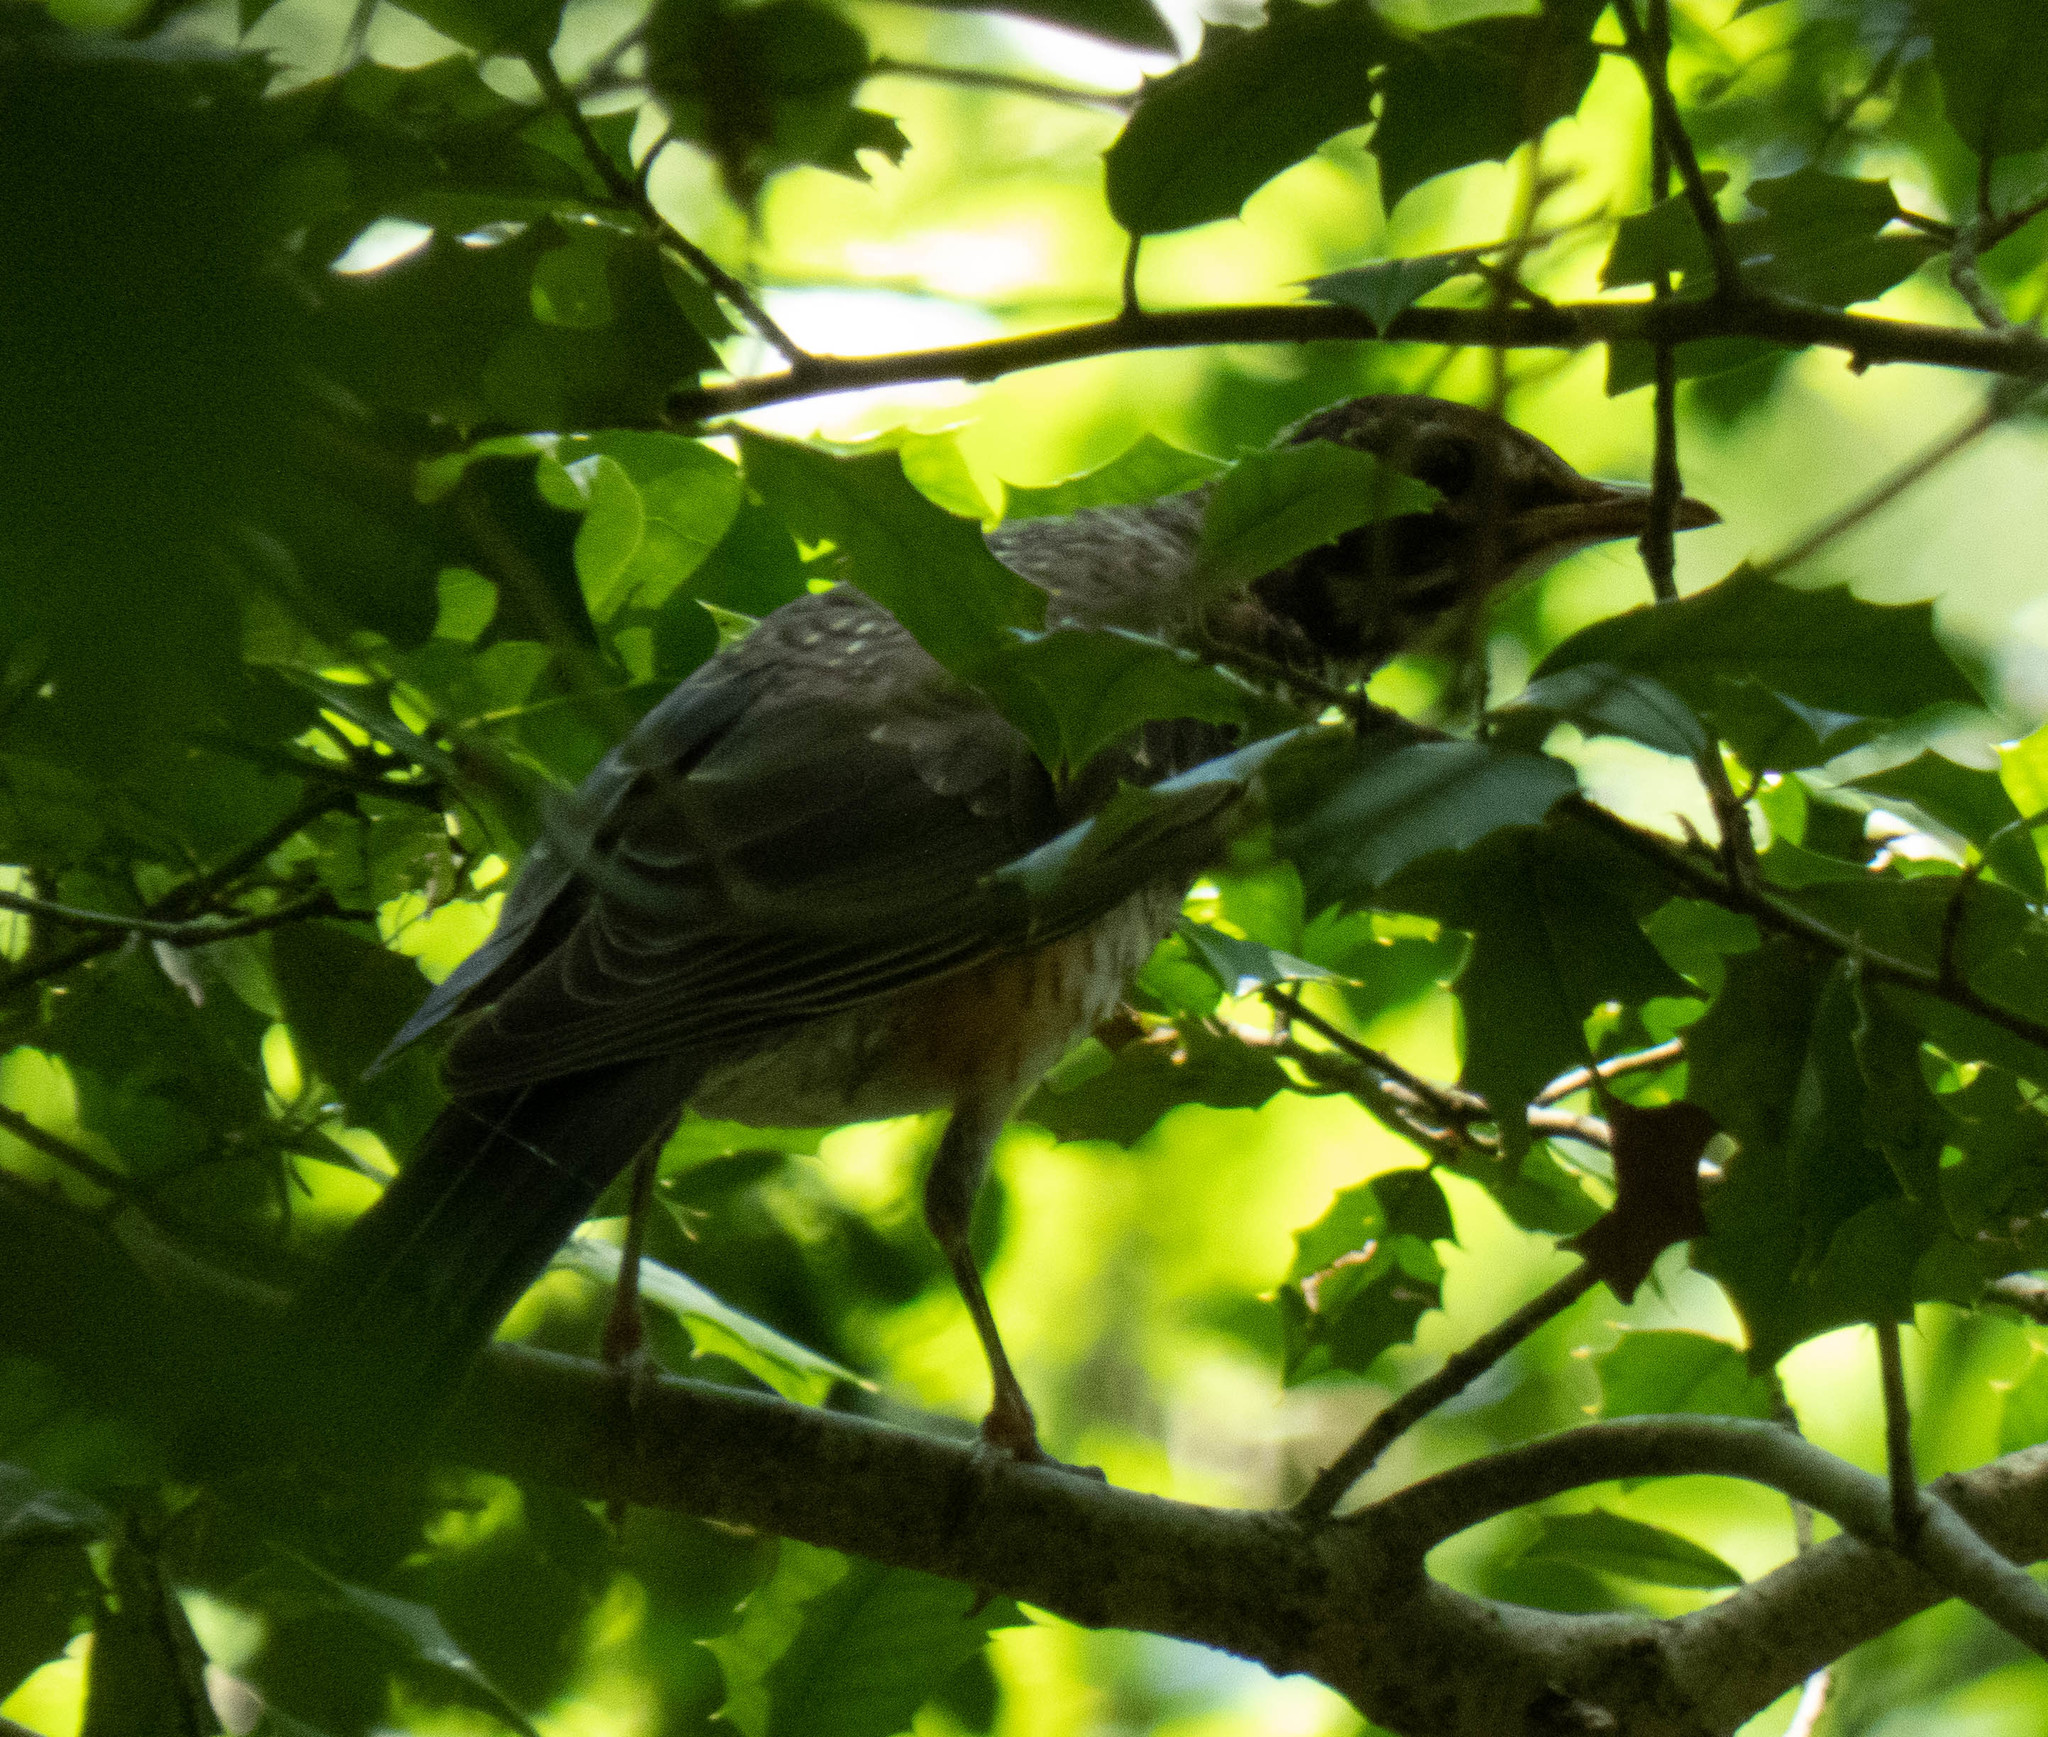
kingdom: Animalia
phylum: Chordata
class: Aves
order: Passeriformes
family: Turdidae
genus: Turdus
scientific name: Turdus migratorius
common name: American robin
